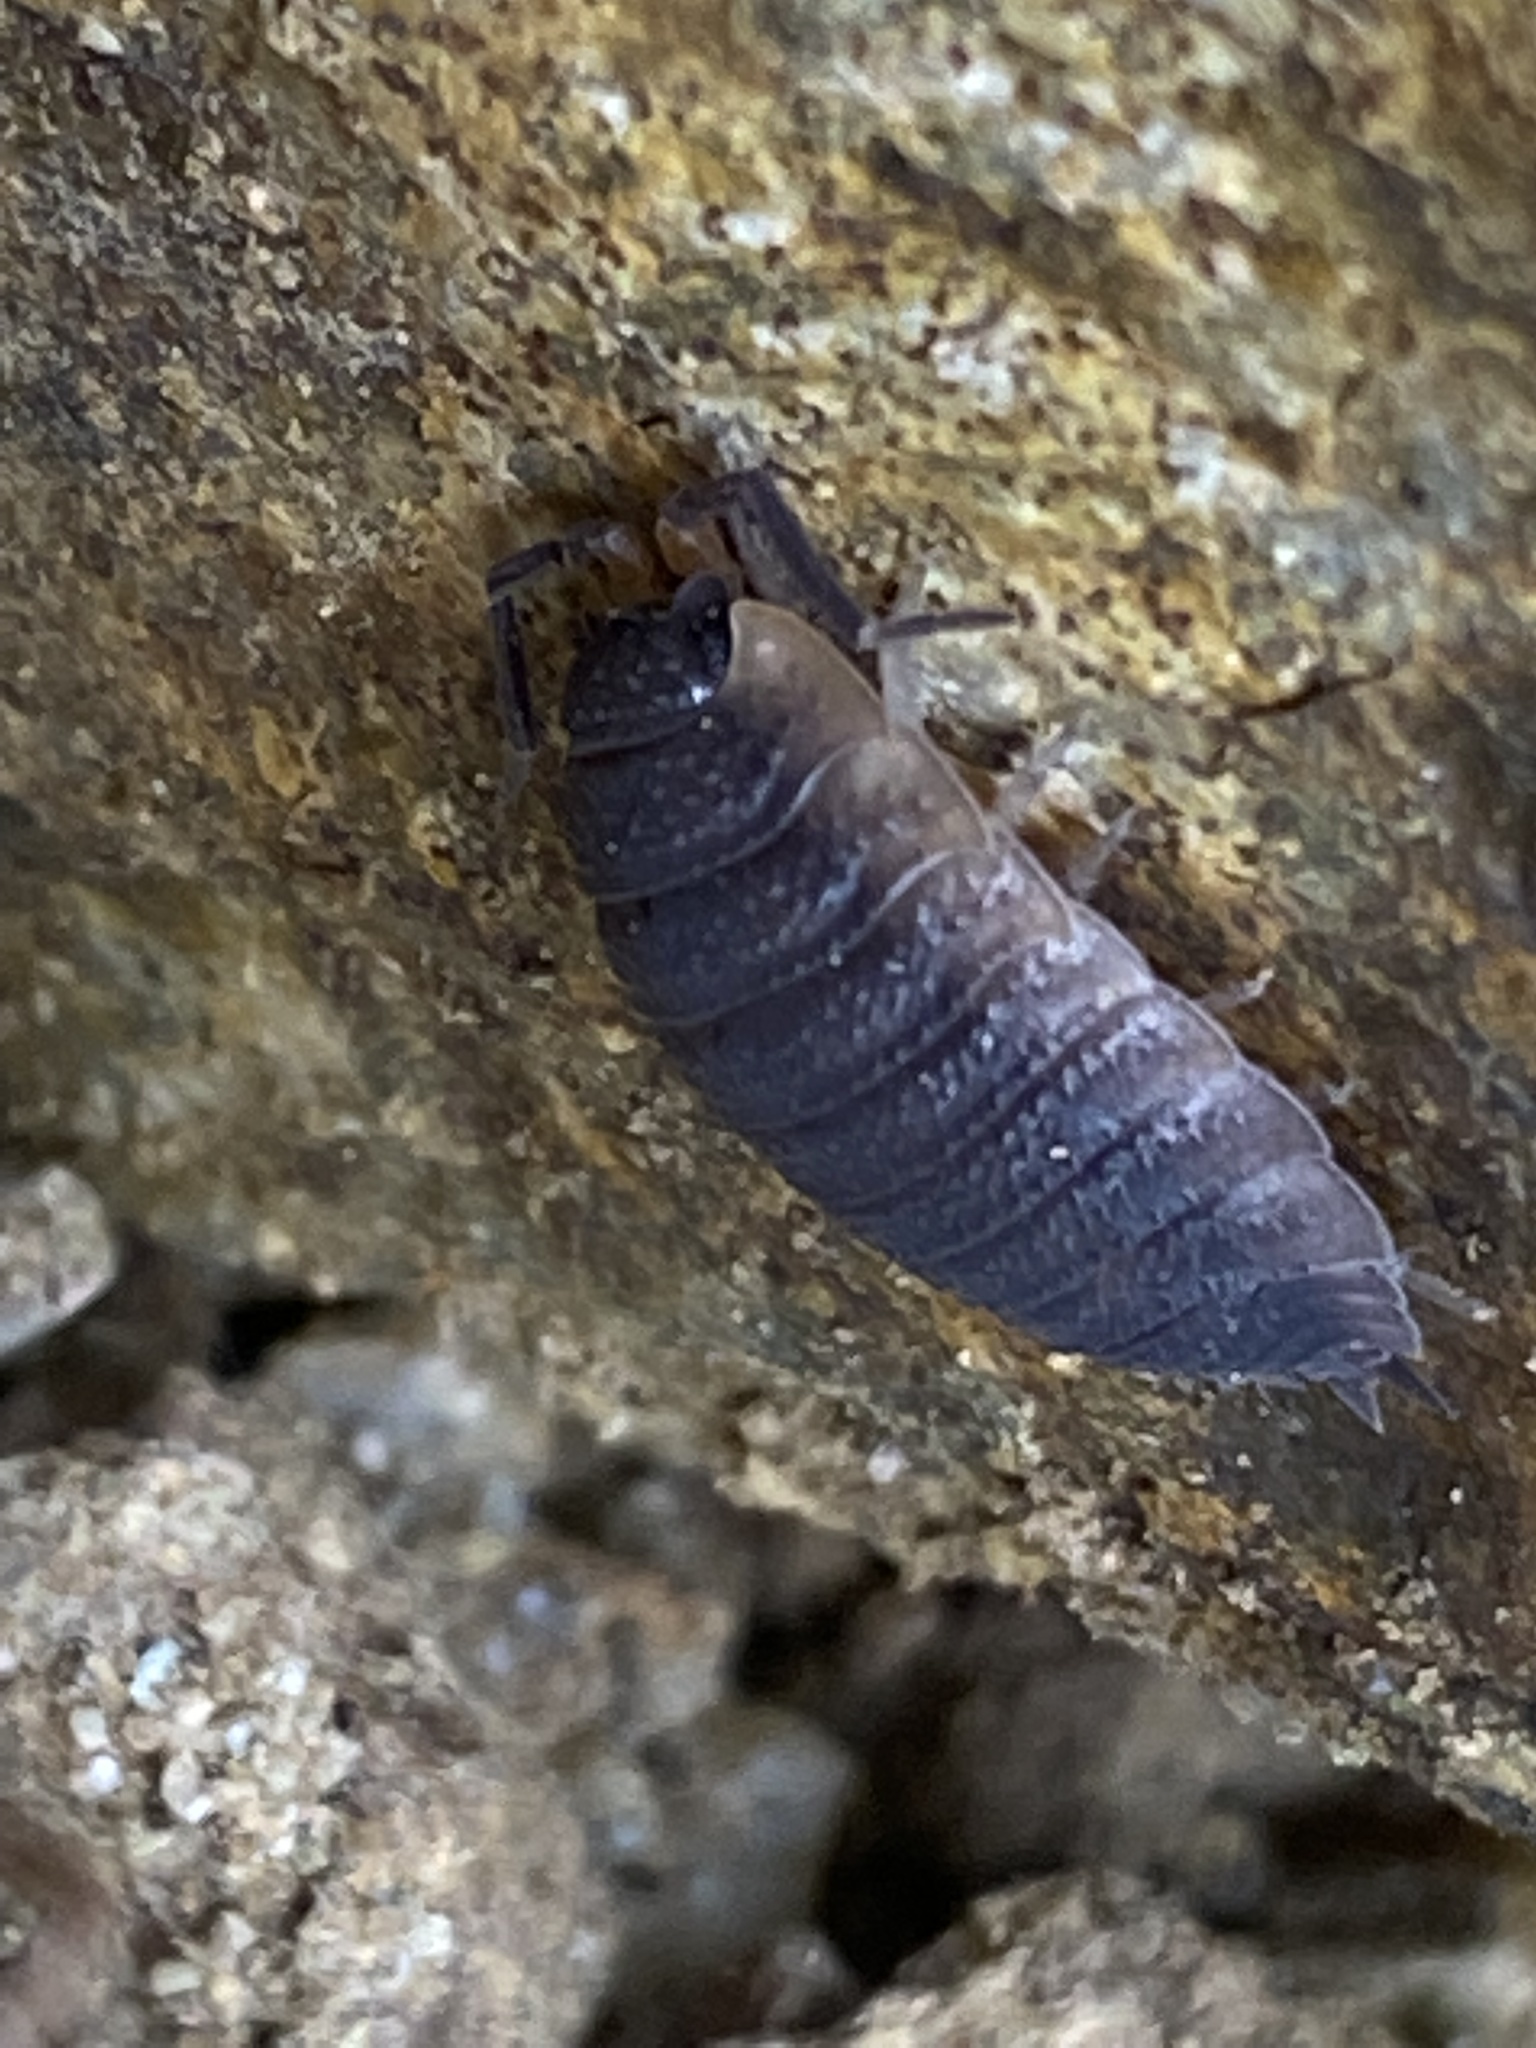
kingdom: Animalia
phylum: Arthropoda
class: Malacostraca
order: Isopoda
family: Porcellionidae
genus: Porcellio
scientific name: Porcellio scaber
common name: Common rough woodlouse
